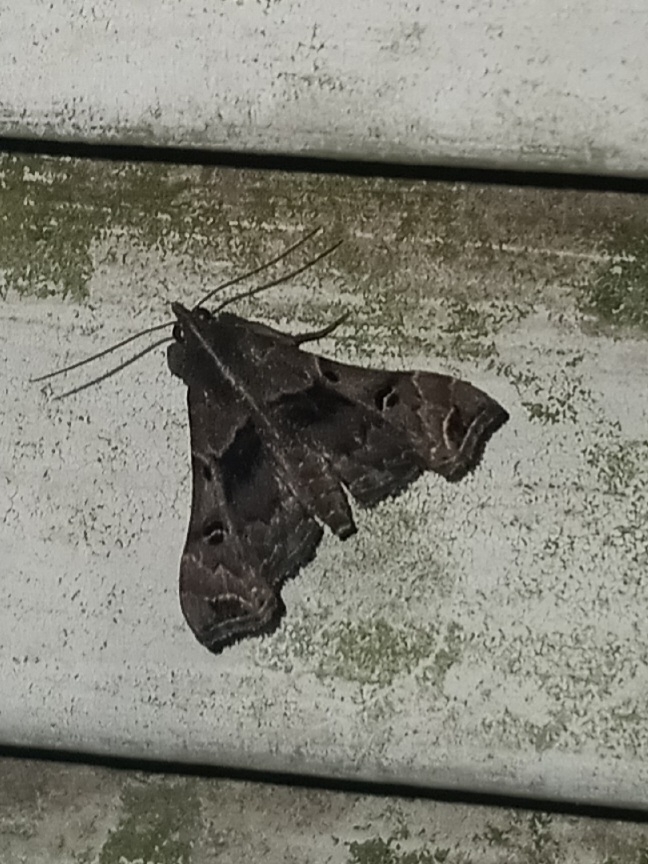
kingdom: Animalia
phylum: Arthropoda
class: Insecta
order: Lepidoptera
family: Erebidae
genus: Palthis
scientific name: Palthis asopialis
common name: Faint-spotted palthis moth
